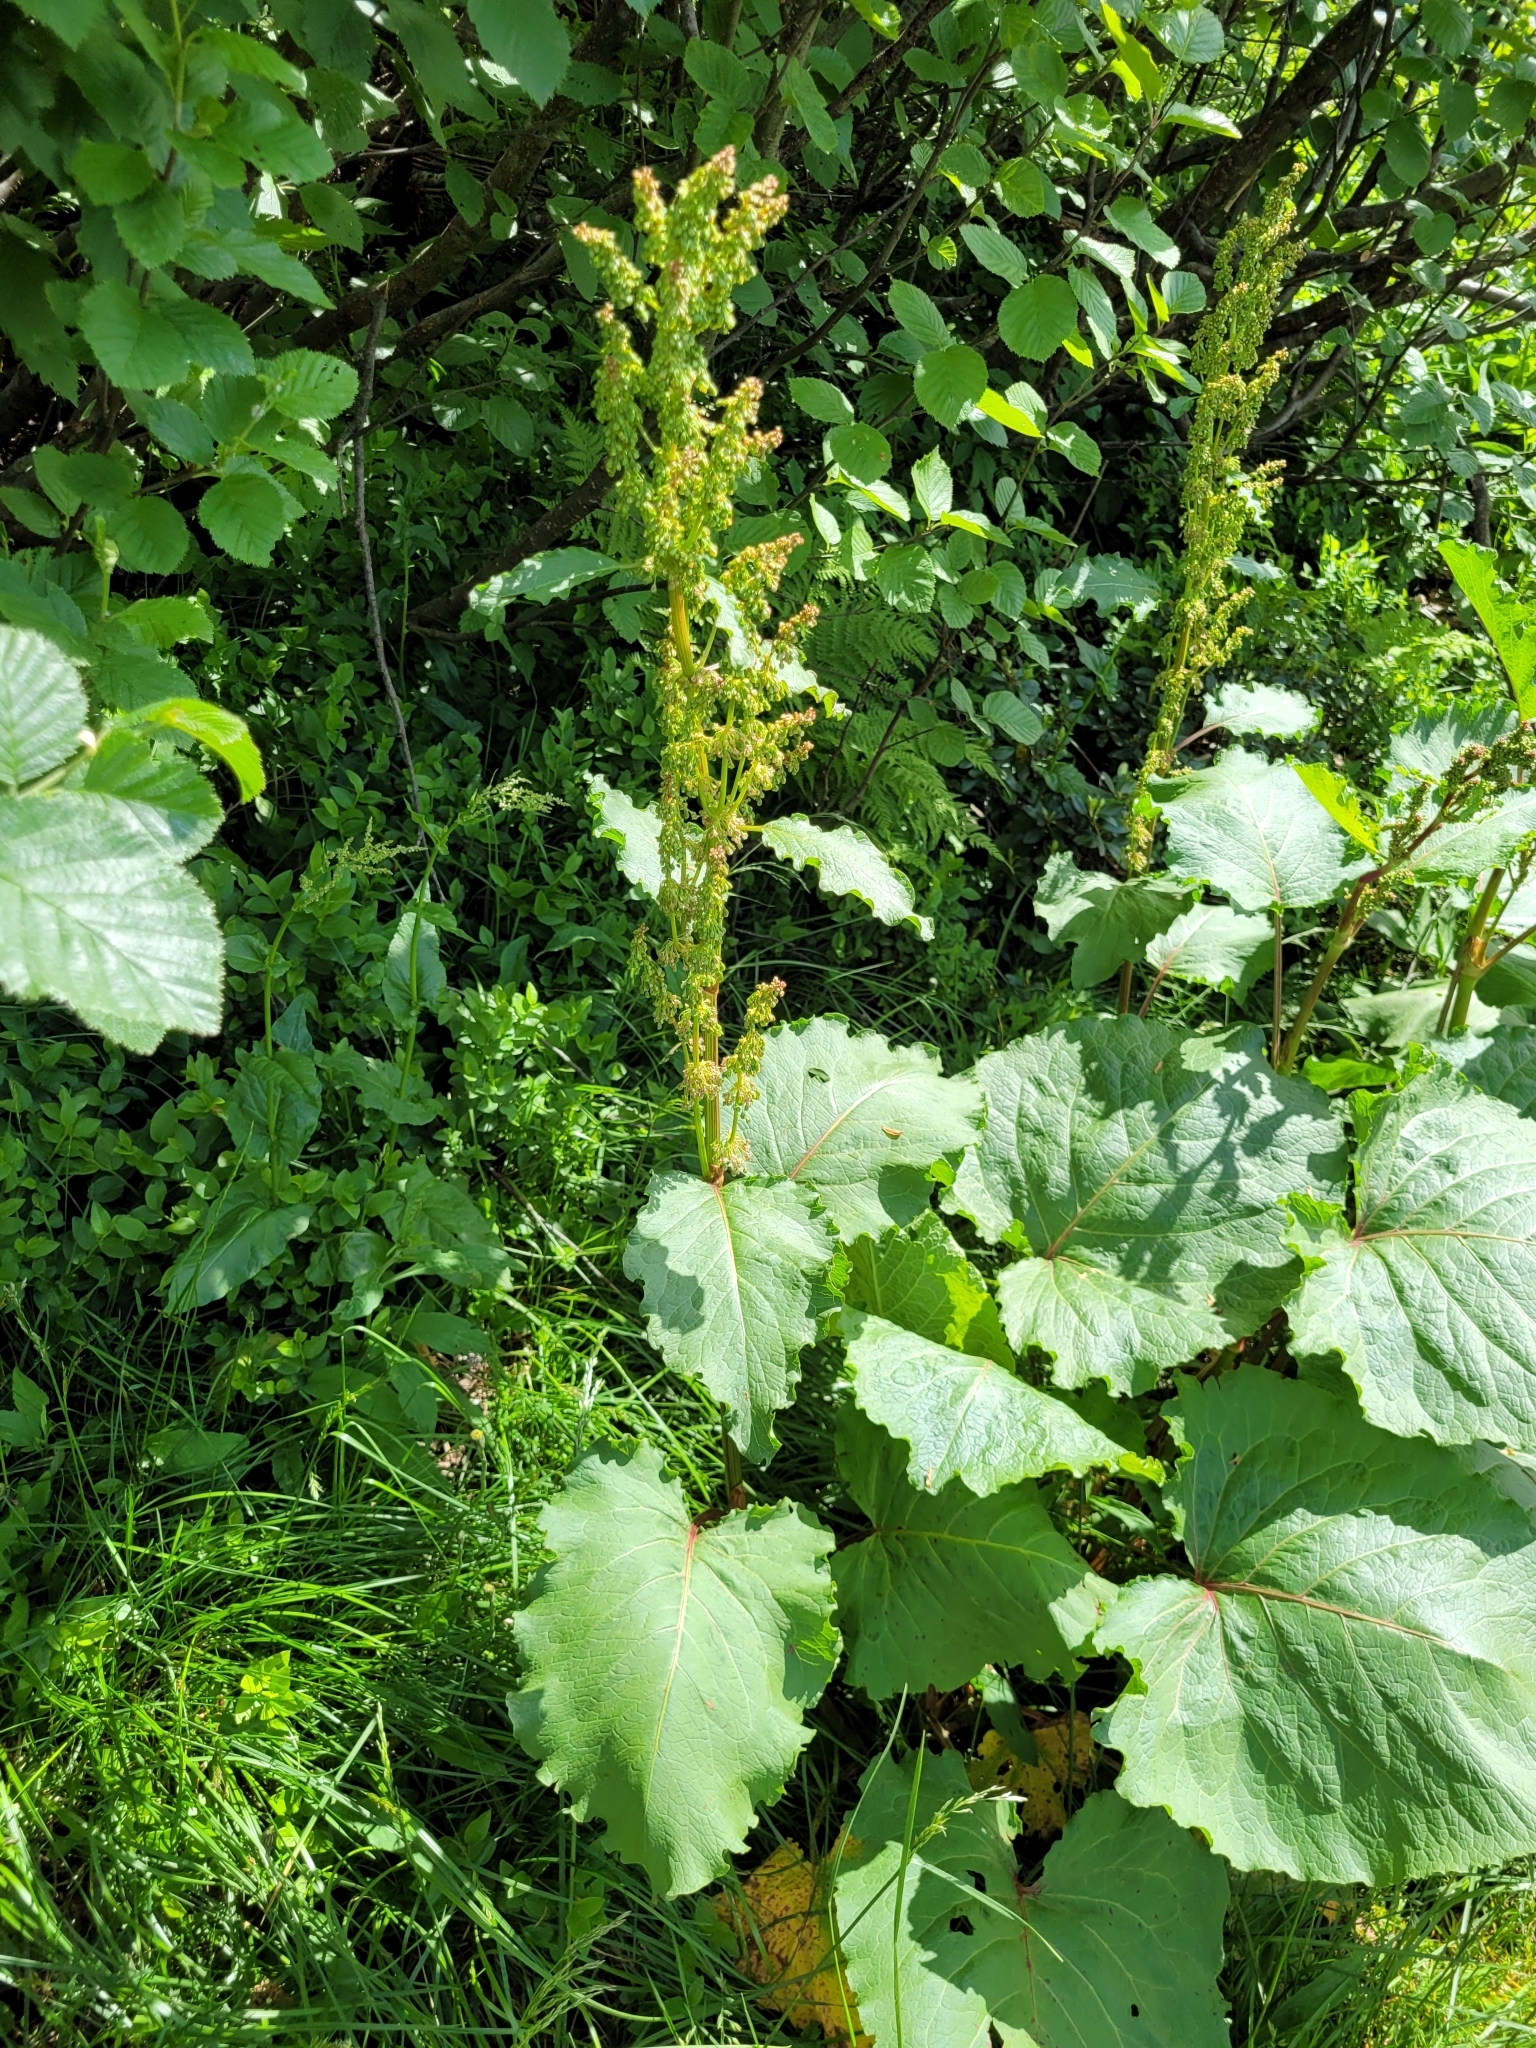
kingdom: Plantae
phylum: Tracheophyta
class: Magnoliopsida
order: Caryophyllales
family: Polygonaceae
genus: Rumex
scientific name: Rumex alpinus
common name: Alpine dock
